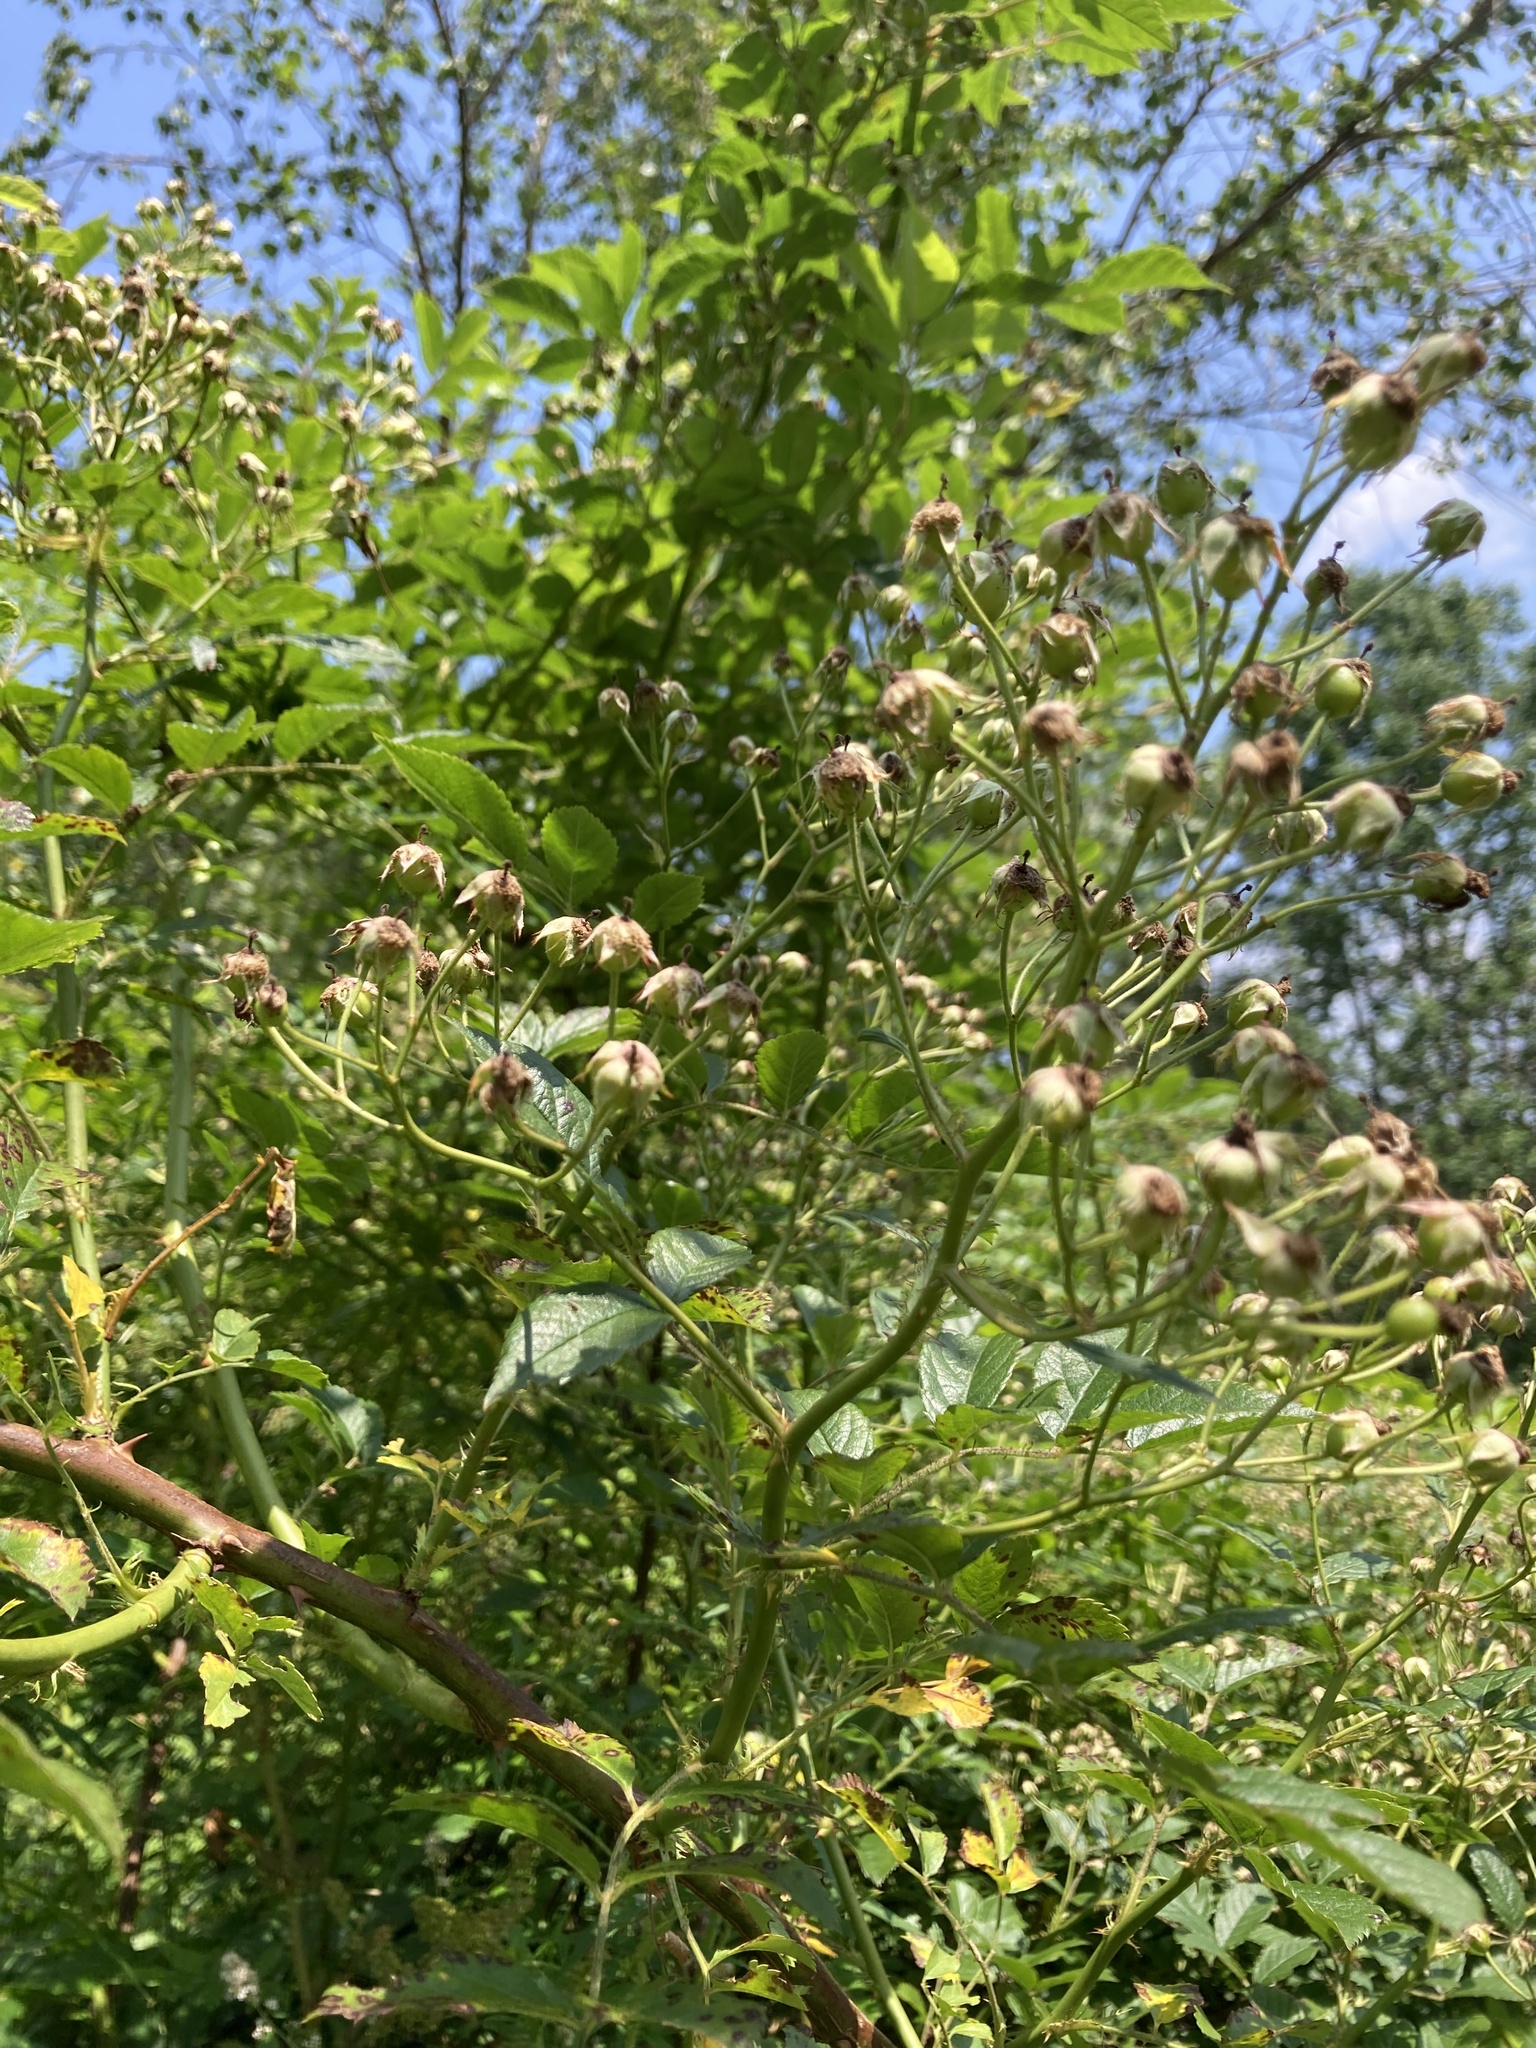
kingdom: Plantae
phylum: Tracheophyta
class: Magnoliopsida
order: Rosales
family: Rosaceae
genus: Rosa
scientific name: Rosa multiflora
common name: Multiflora rose
